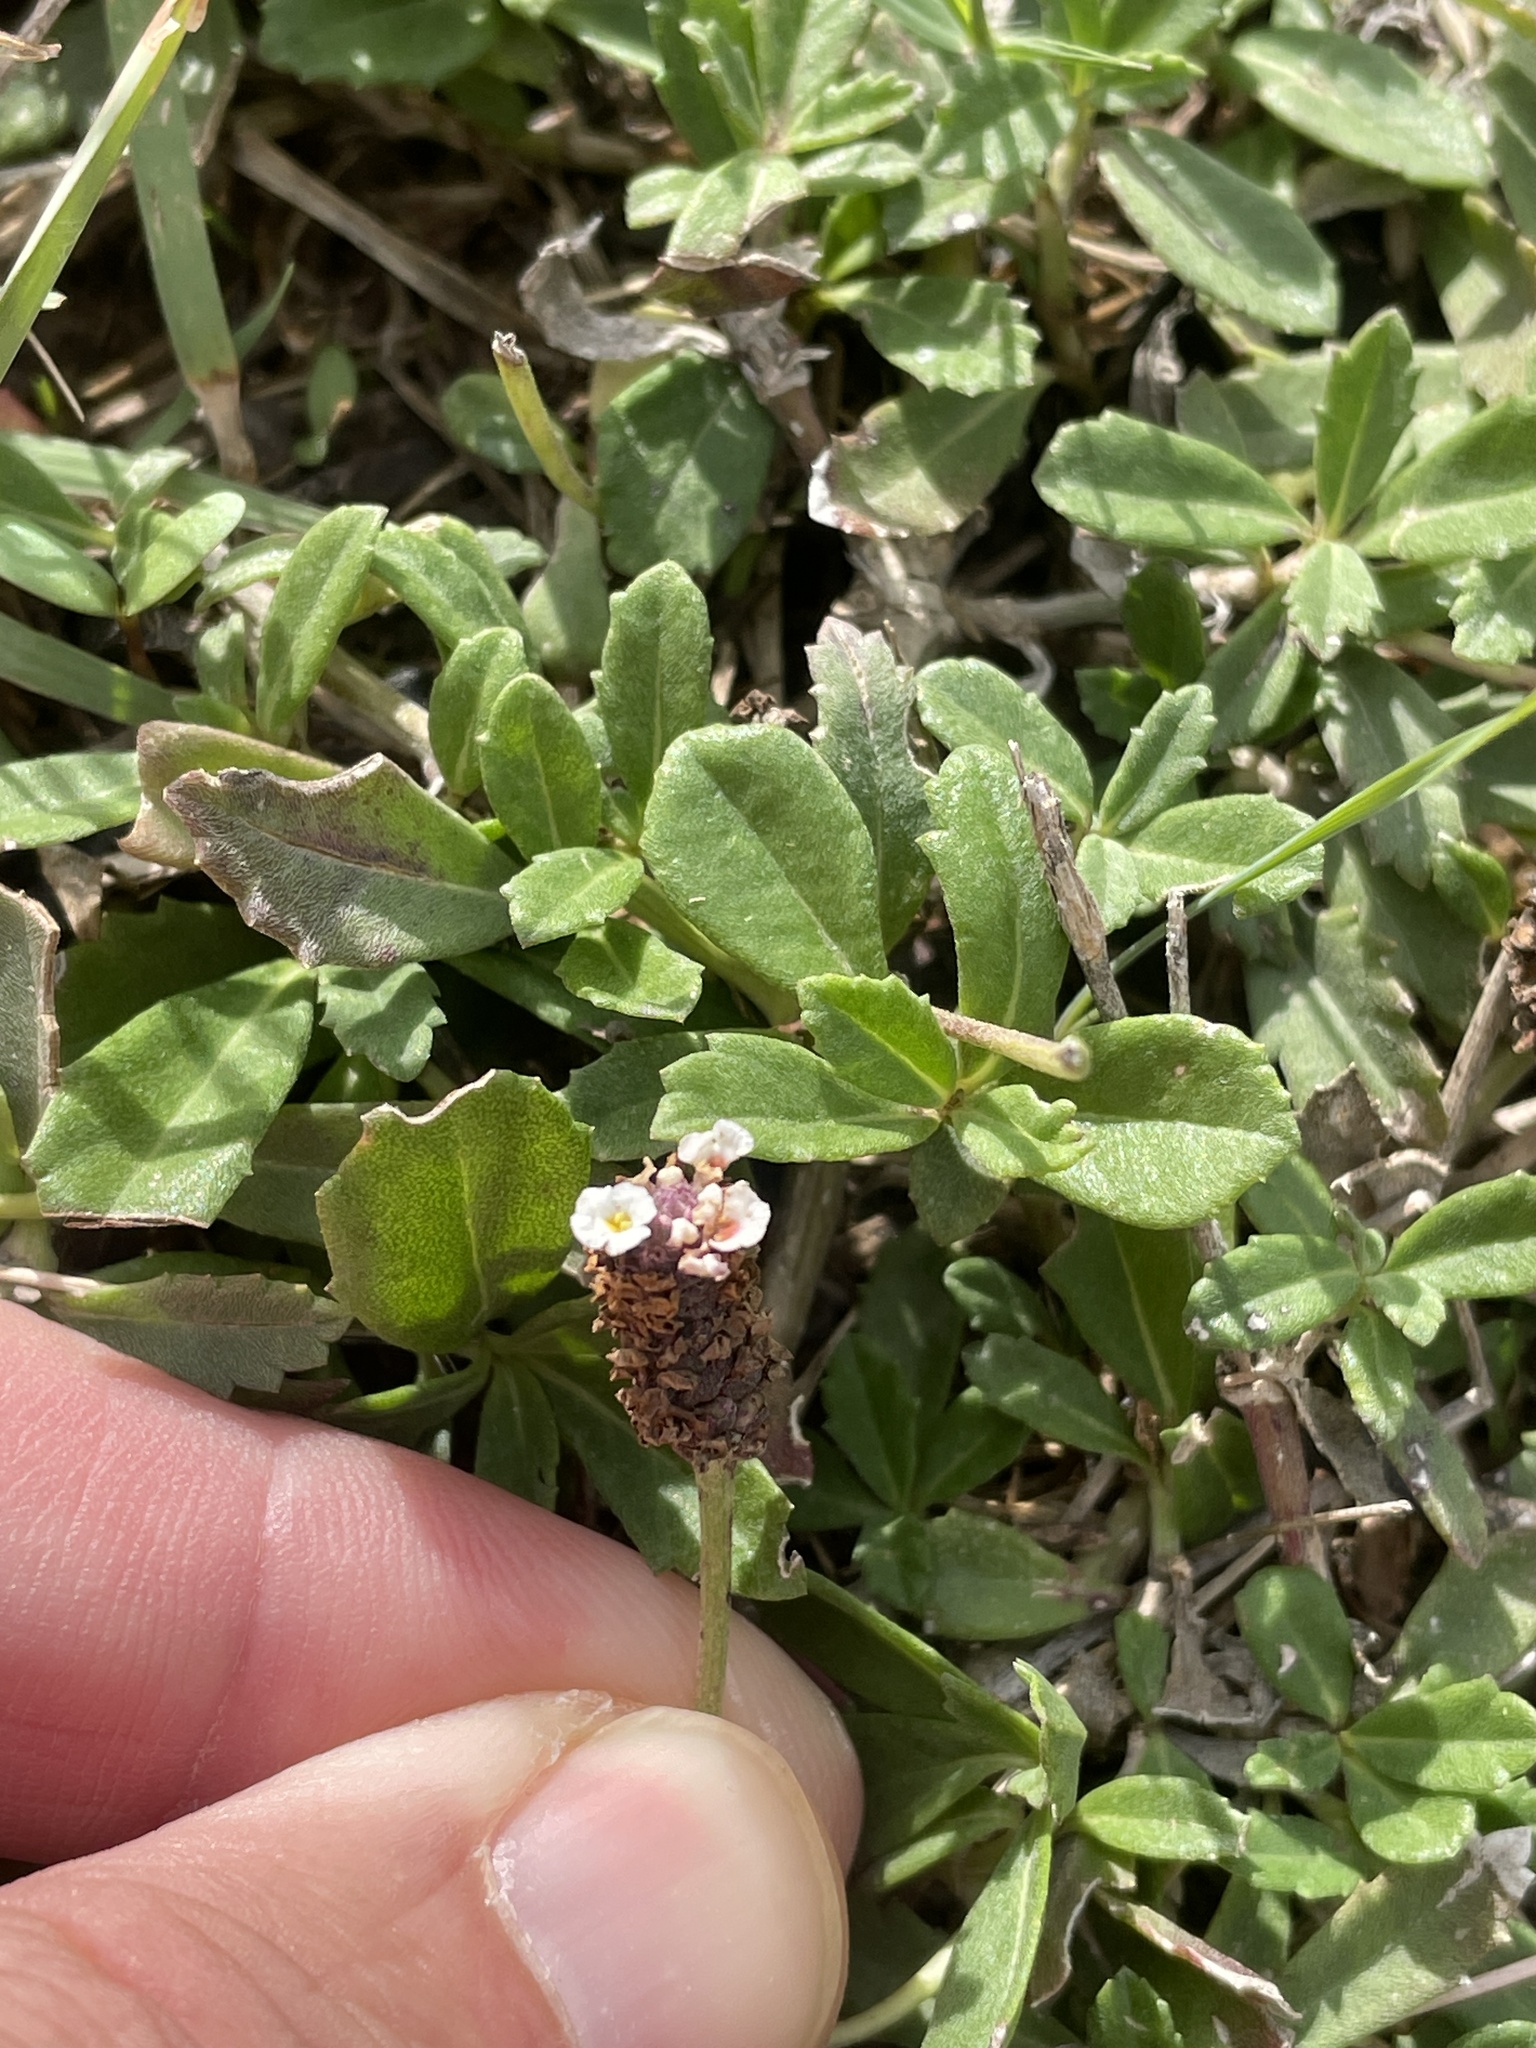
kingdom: Plantae
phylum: Tracheophyta
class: Magnoliopsida
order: Lamiales
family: Verbenaceae
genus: Phyla
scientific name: Phyla nodiflora
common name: Frogfruit
